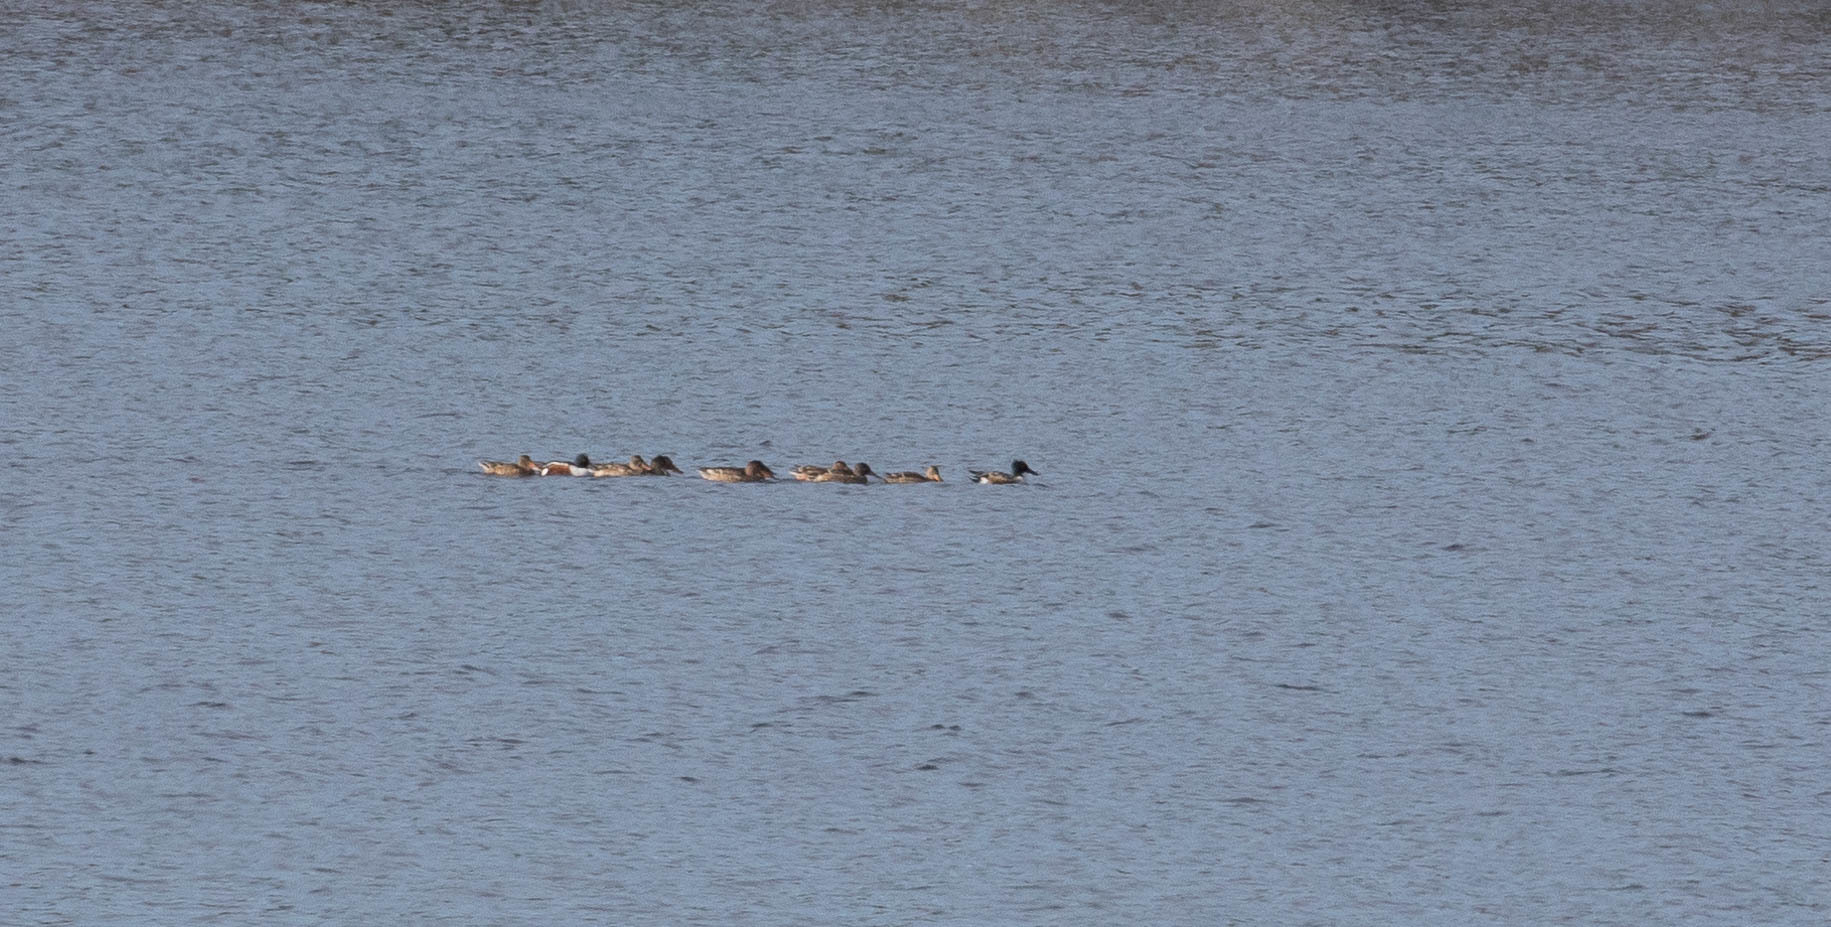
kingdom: Animalia
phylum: Chordata
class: Aves
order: Anseriformes
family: Anatidae
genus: Spatula
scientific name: Spatula clypeata
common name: Northern shoveler
